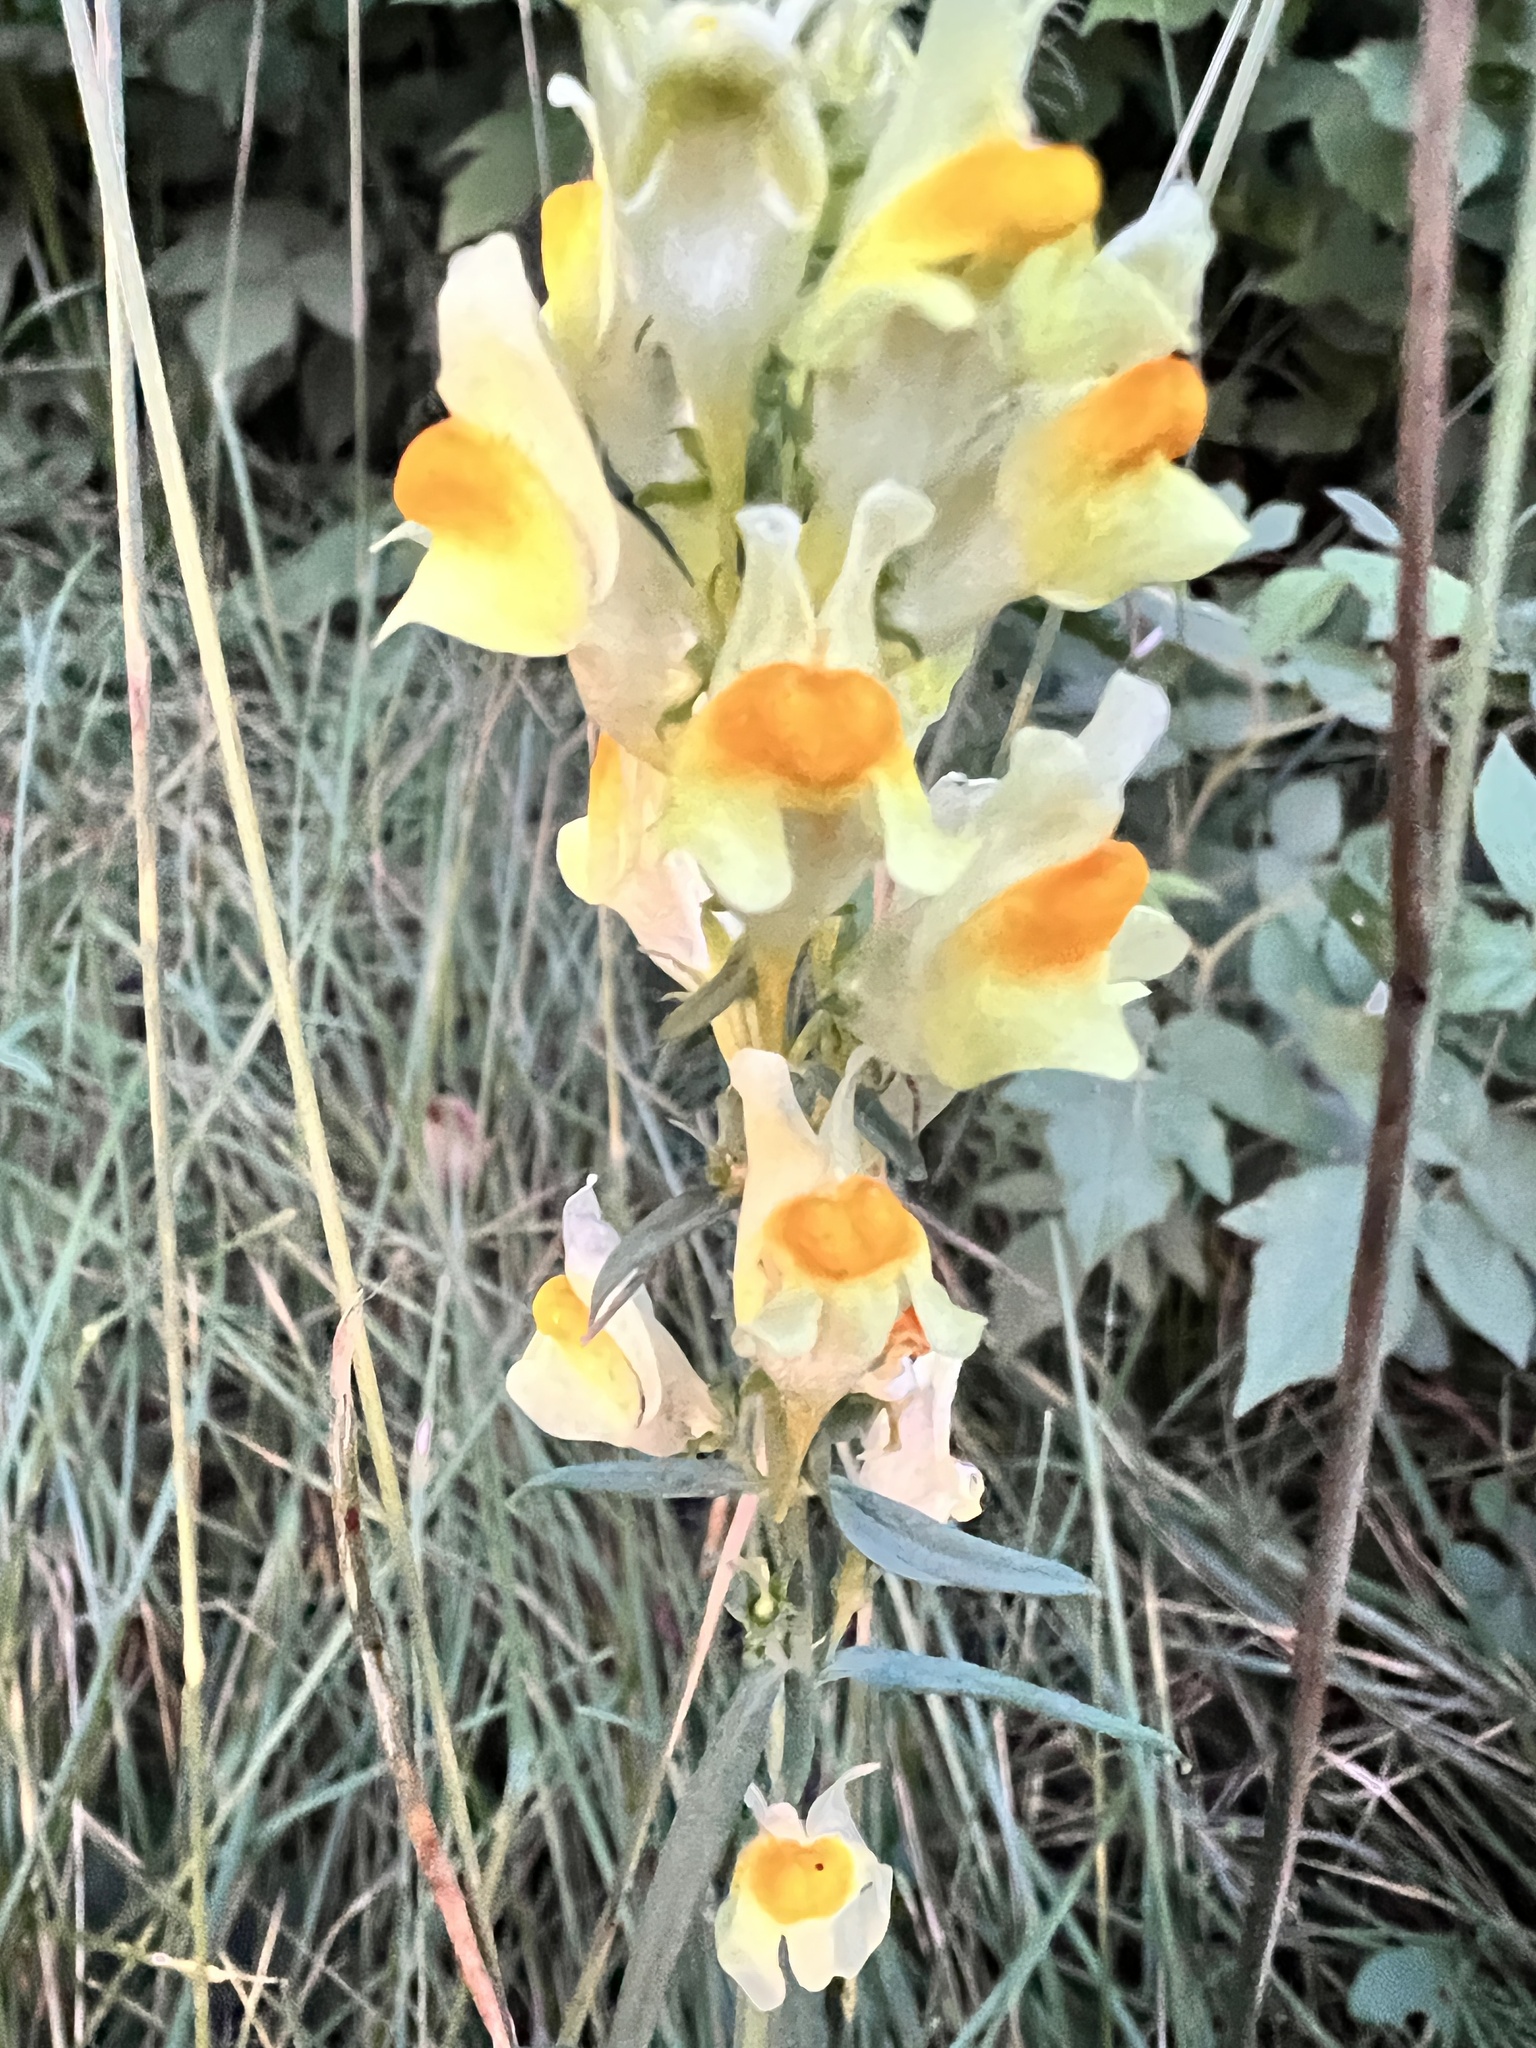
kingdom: Plantae
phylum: Tracheophyta
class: Magnoliopsida
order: Lamiales
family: Plantaginaceae
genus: Linaria
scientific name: Linaria vulgaris
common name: Butter and eggs
